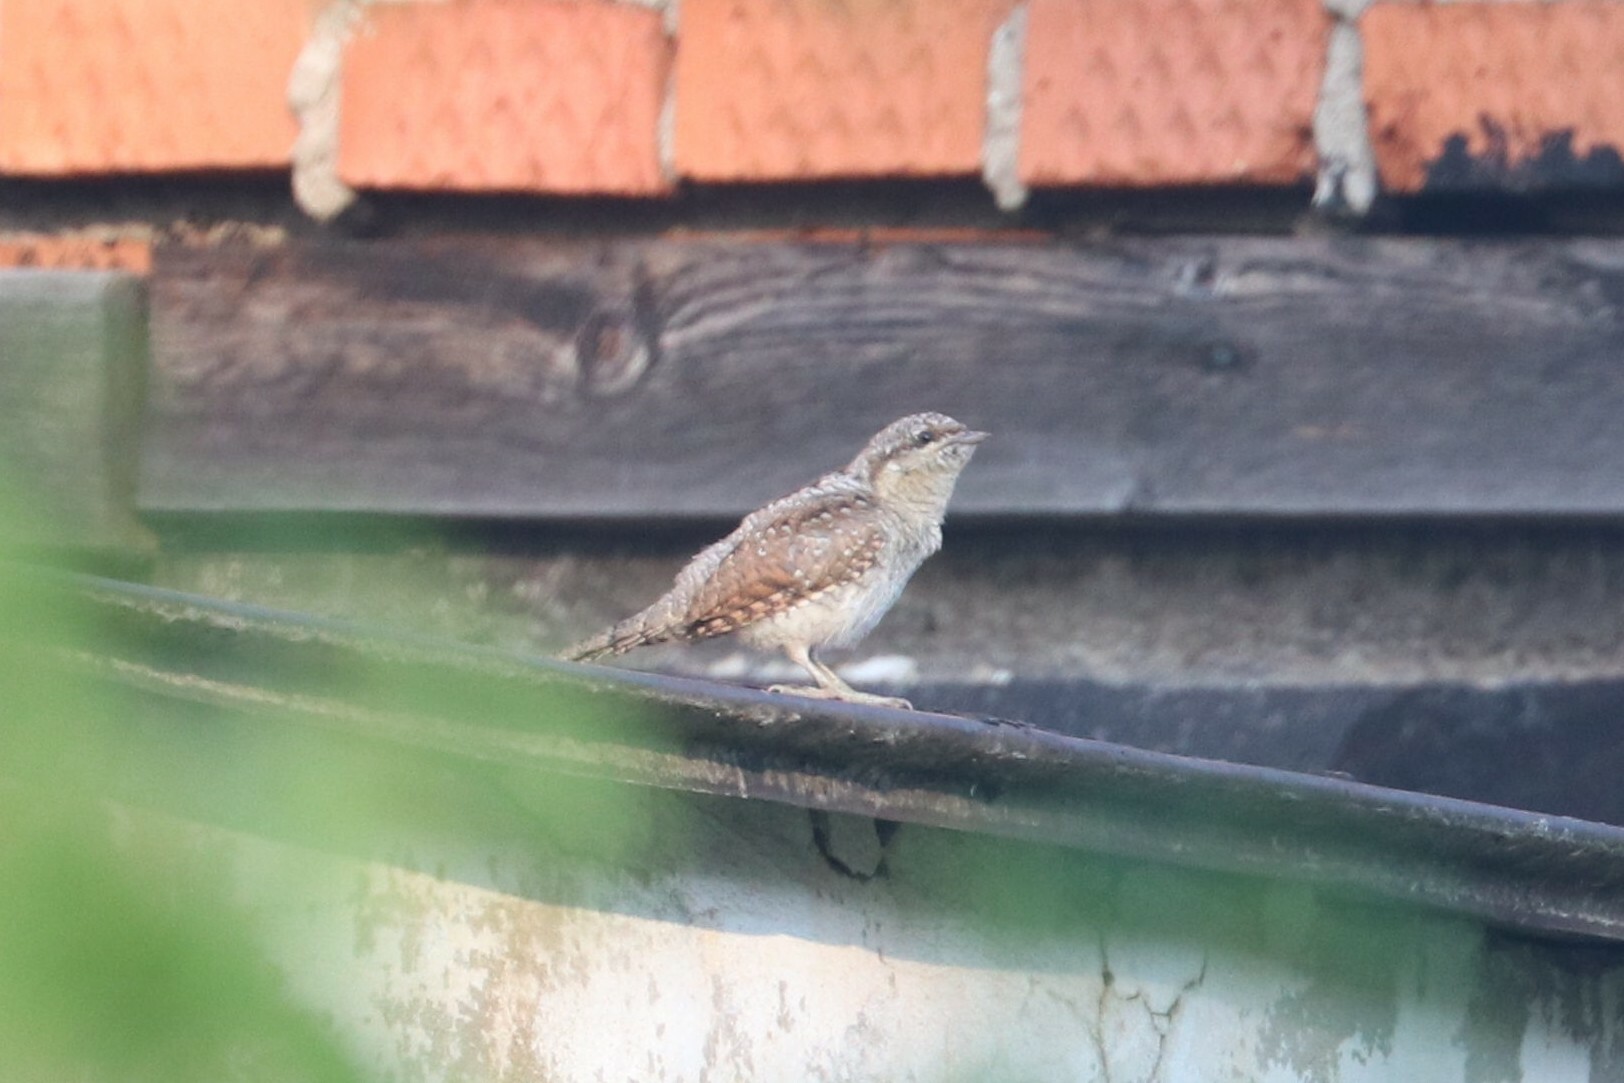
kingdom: Animalia
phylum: Chordata
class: Aves
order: Piciformes
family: Picidae
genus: Jynx
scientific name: Jynx torquilla
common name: Eurasian wryneck
